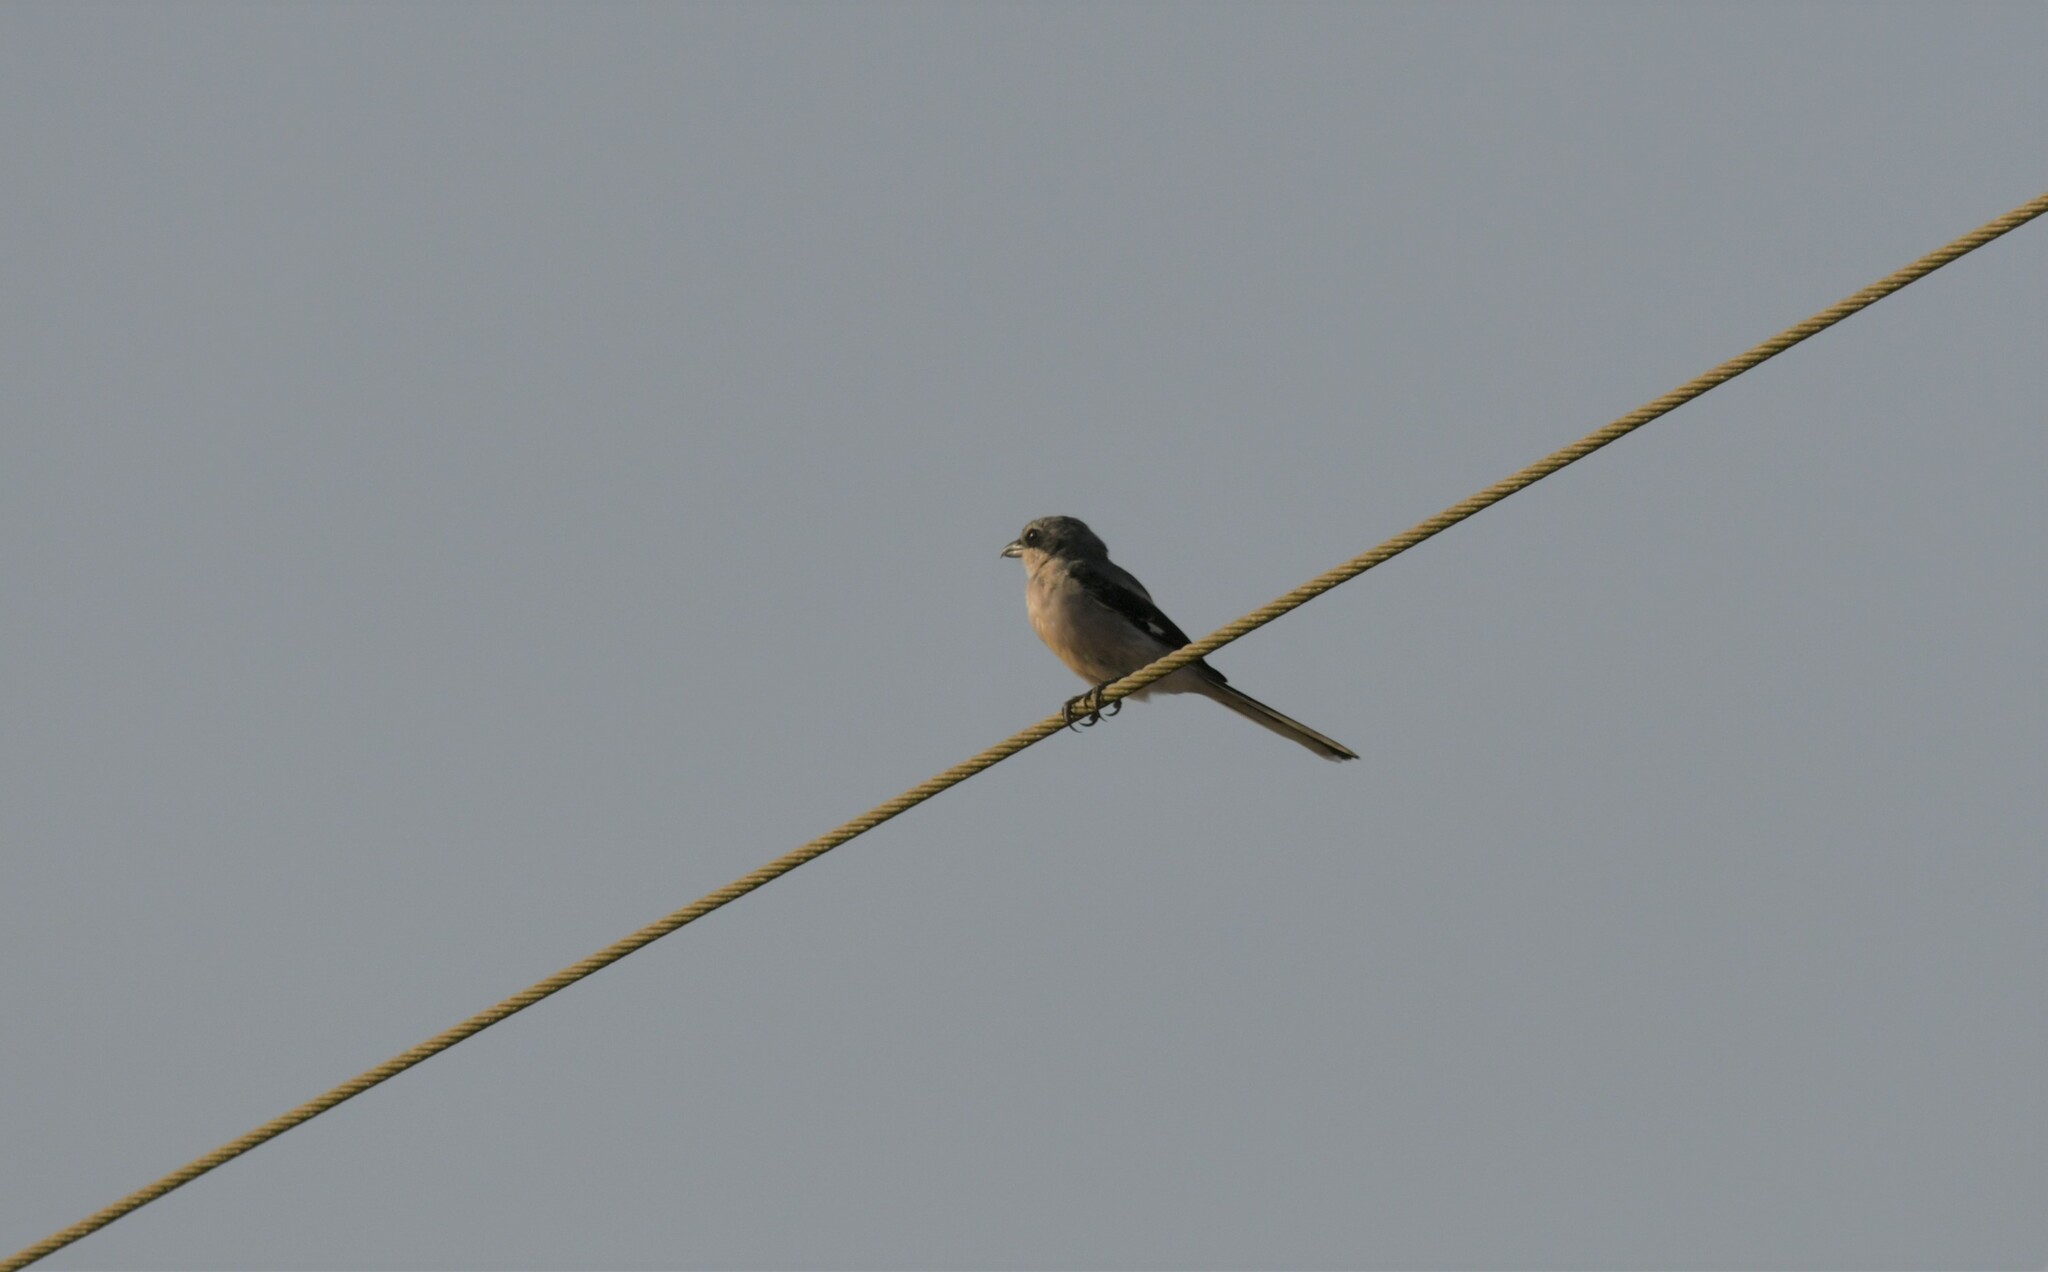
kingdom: Animalia
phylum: Chordata
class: Aves
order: Passeriformes
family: Laniidae
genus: Lanius
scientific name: Lanius meridionalis
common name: Iberian grey shrike
